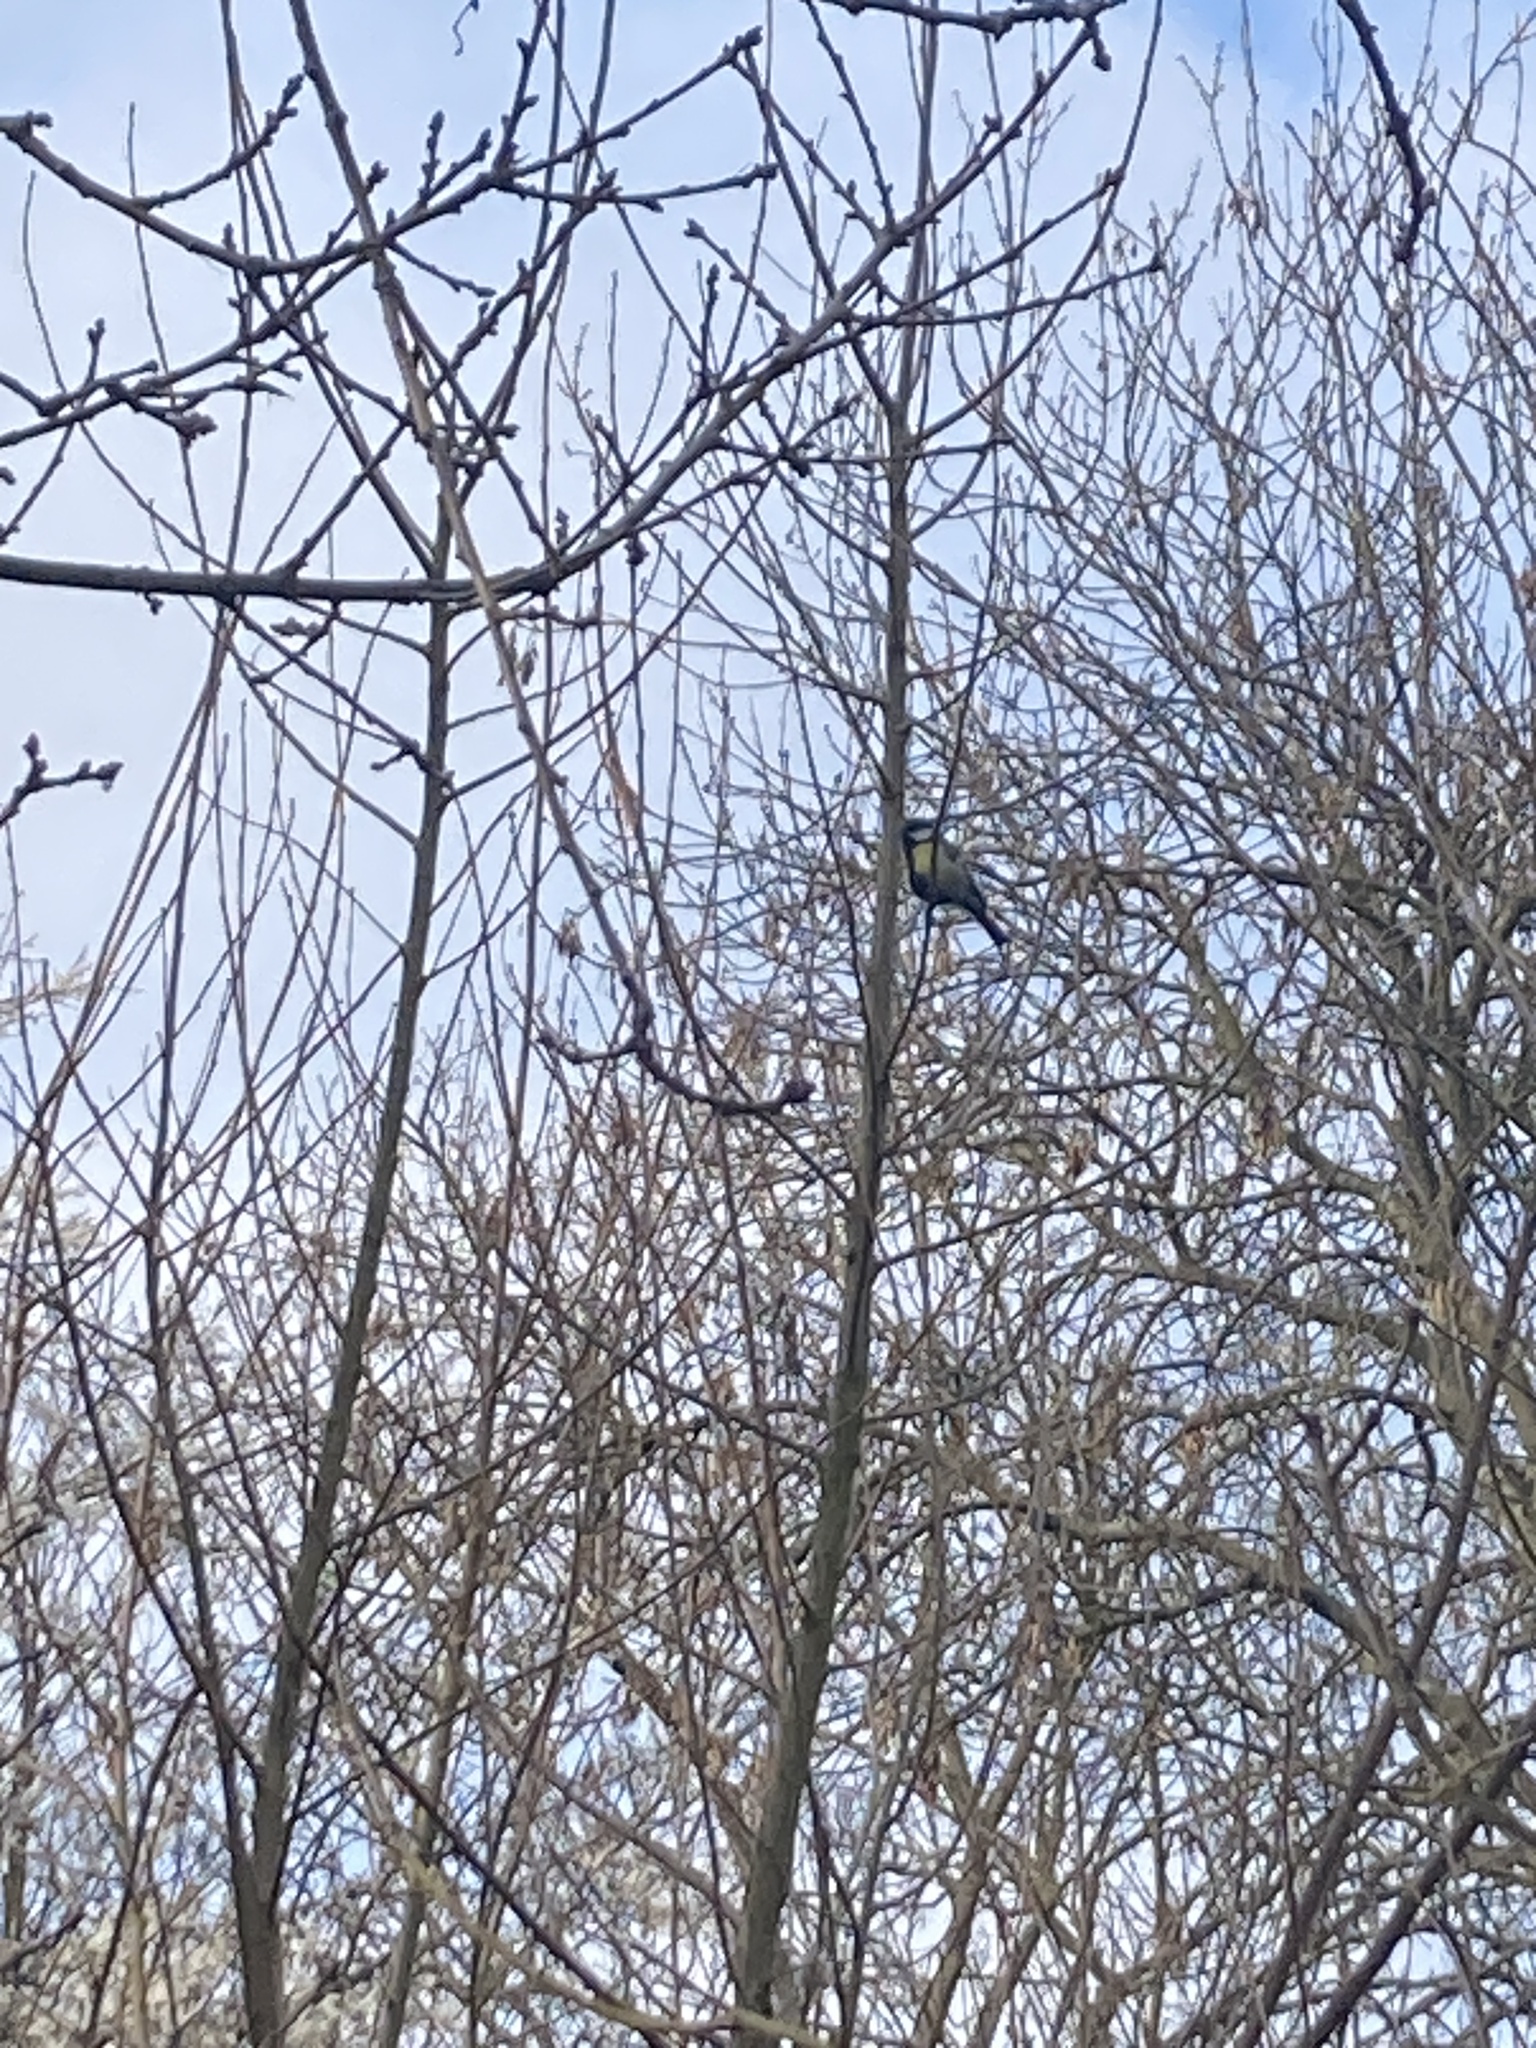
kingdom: Animalia
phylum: Chordata
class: Aves
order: Passeriformes
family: Paridae
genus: Parus
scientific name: Parus major
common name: Great tit
